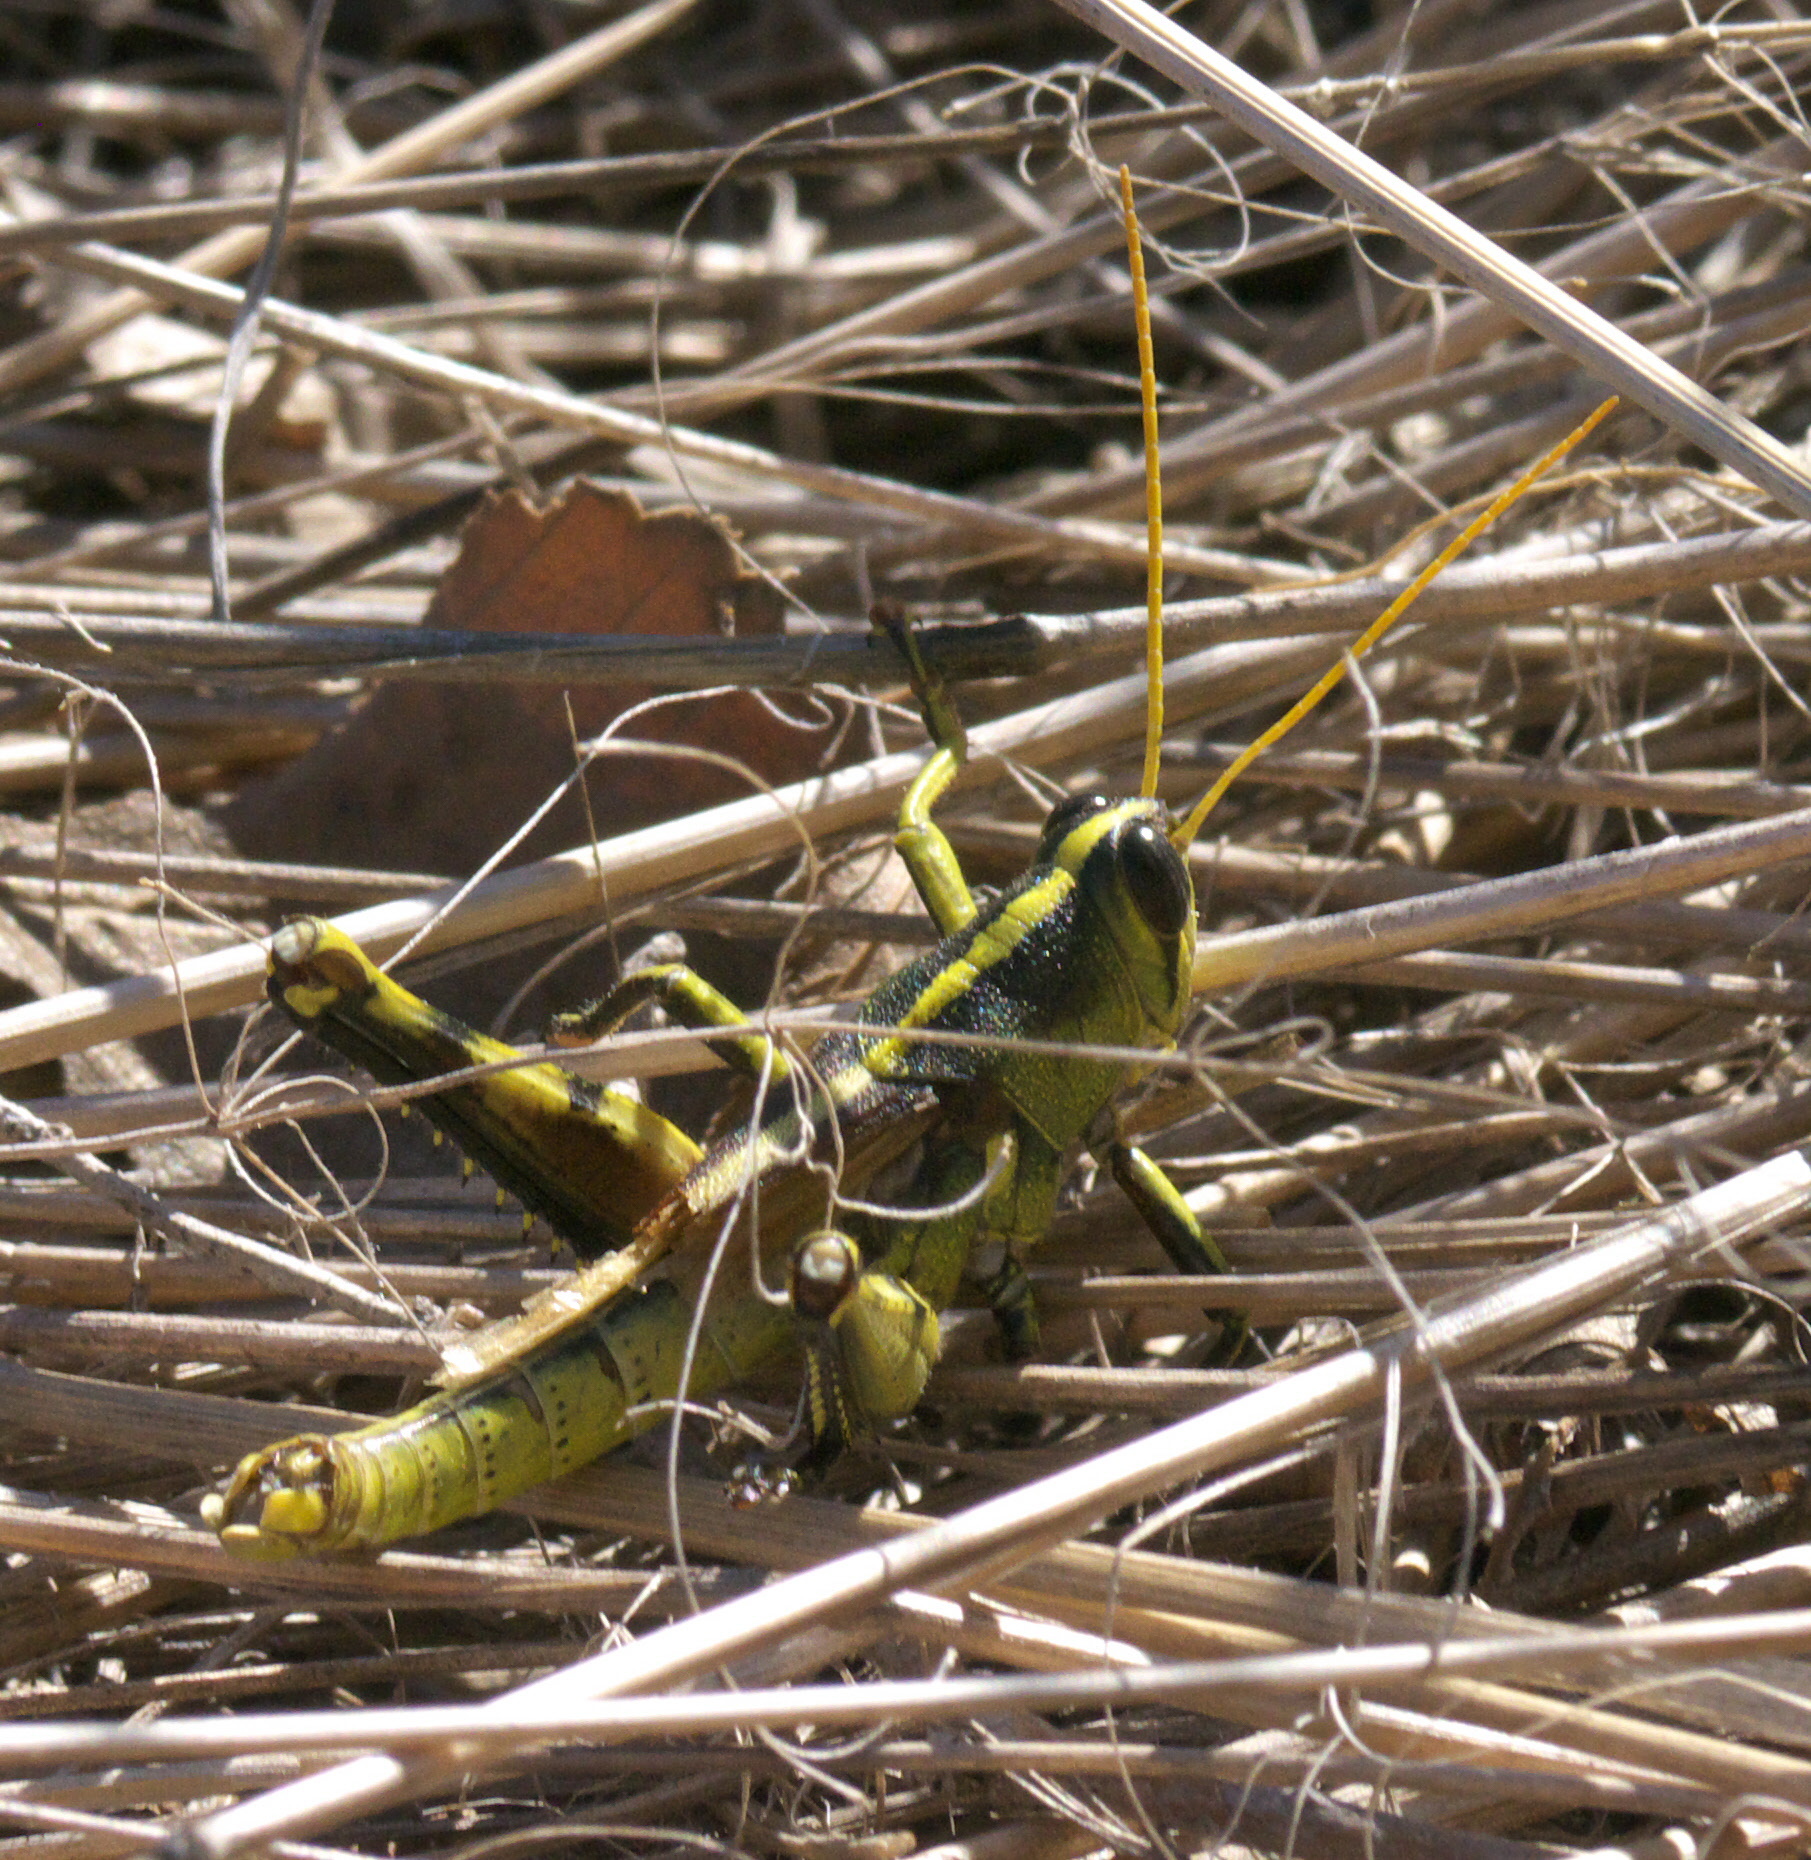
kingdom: Animalia
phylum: Arthropoda
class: Insecta
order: Orthoptera
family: Acrididae
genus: Schistocerca
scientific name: Schistocerca obscura
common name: Obscure bird grasshopper
